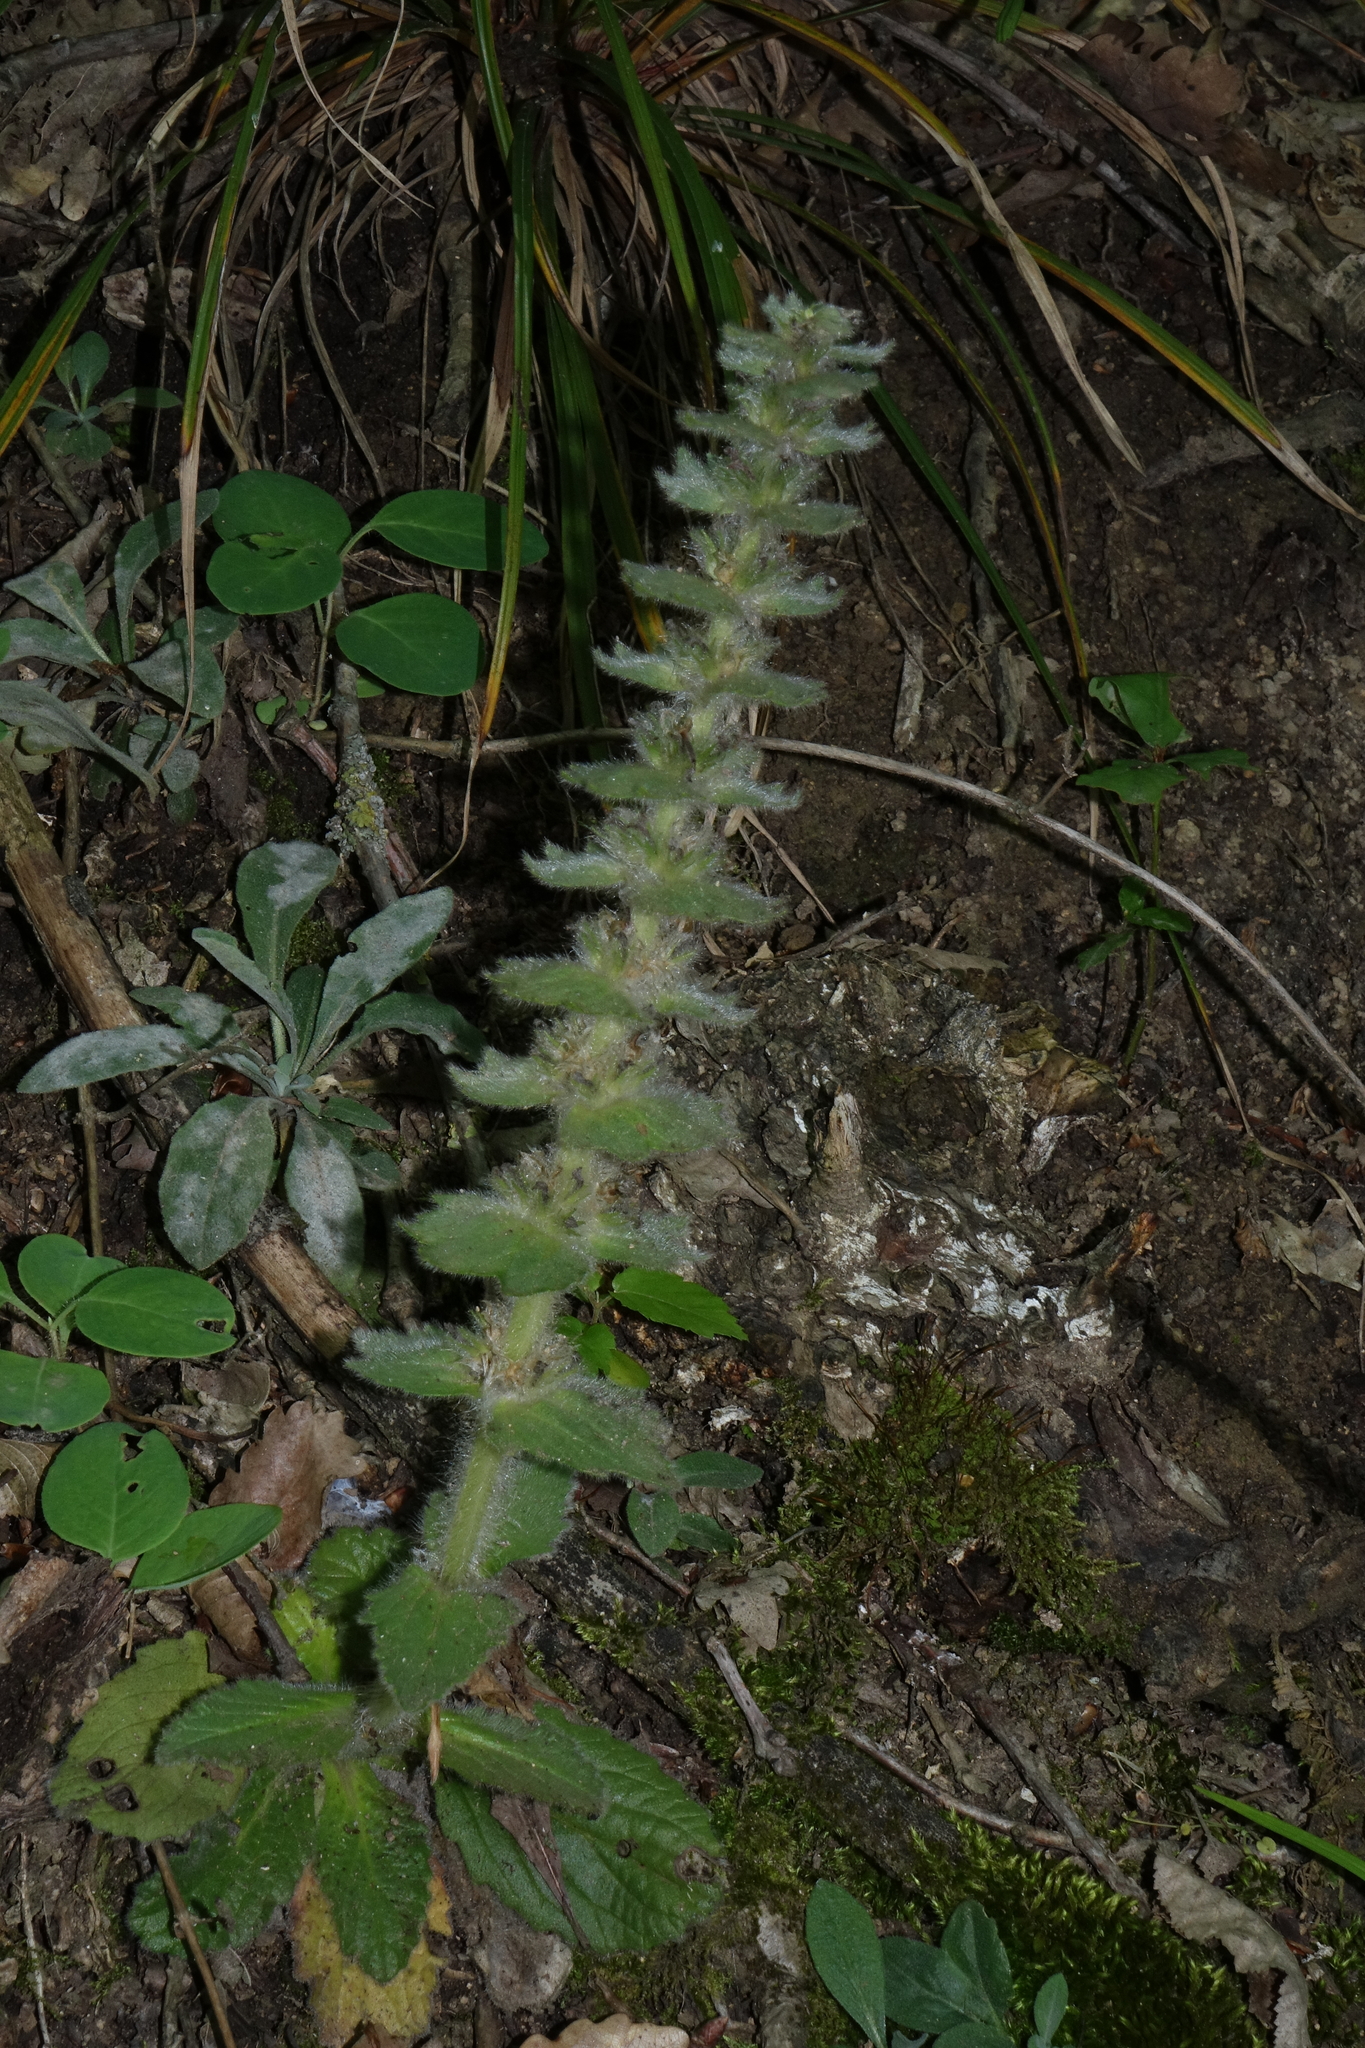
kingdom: Plantae
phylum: Tracheophyta
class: Magnoliopsida
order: Lamiales
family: Lamiaceae
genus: Ajuga
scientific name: Ajuga orientalis
